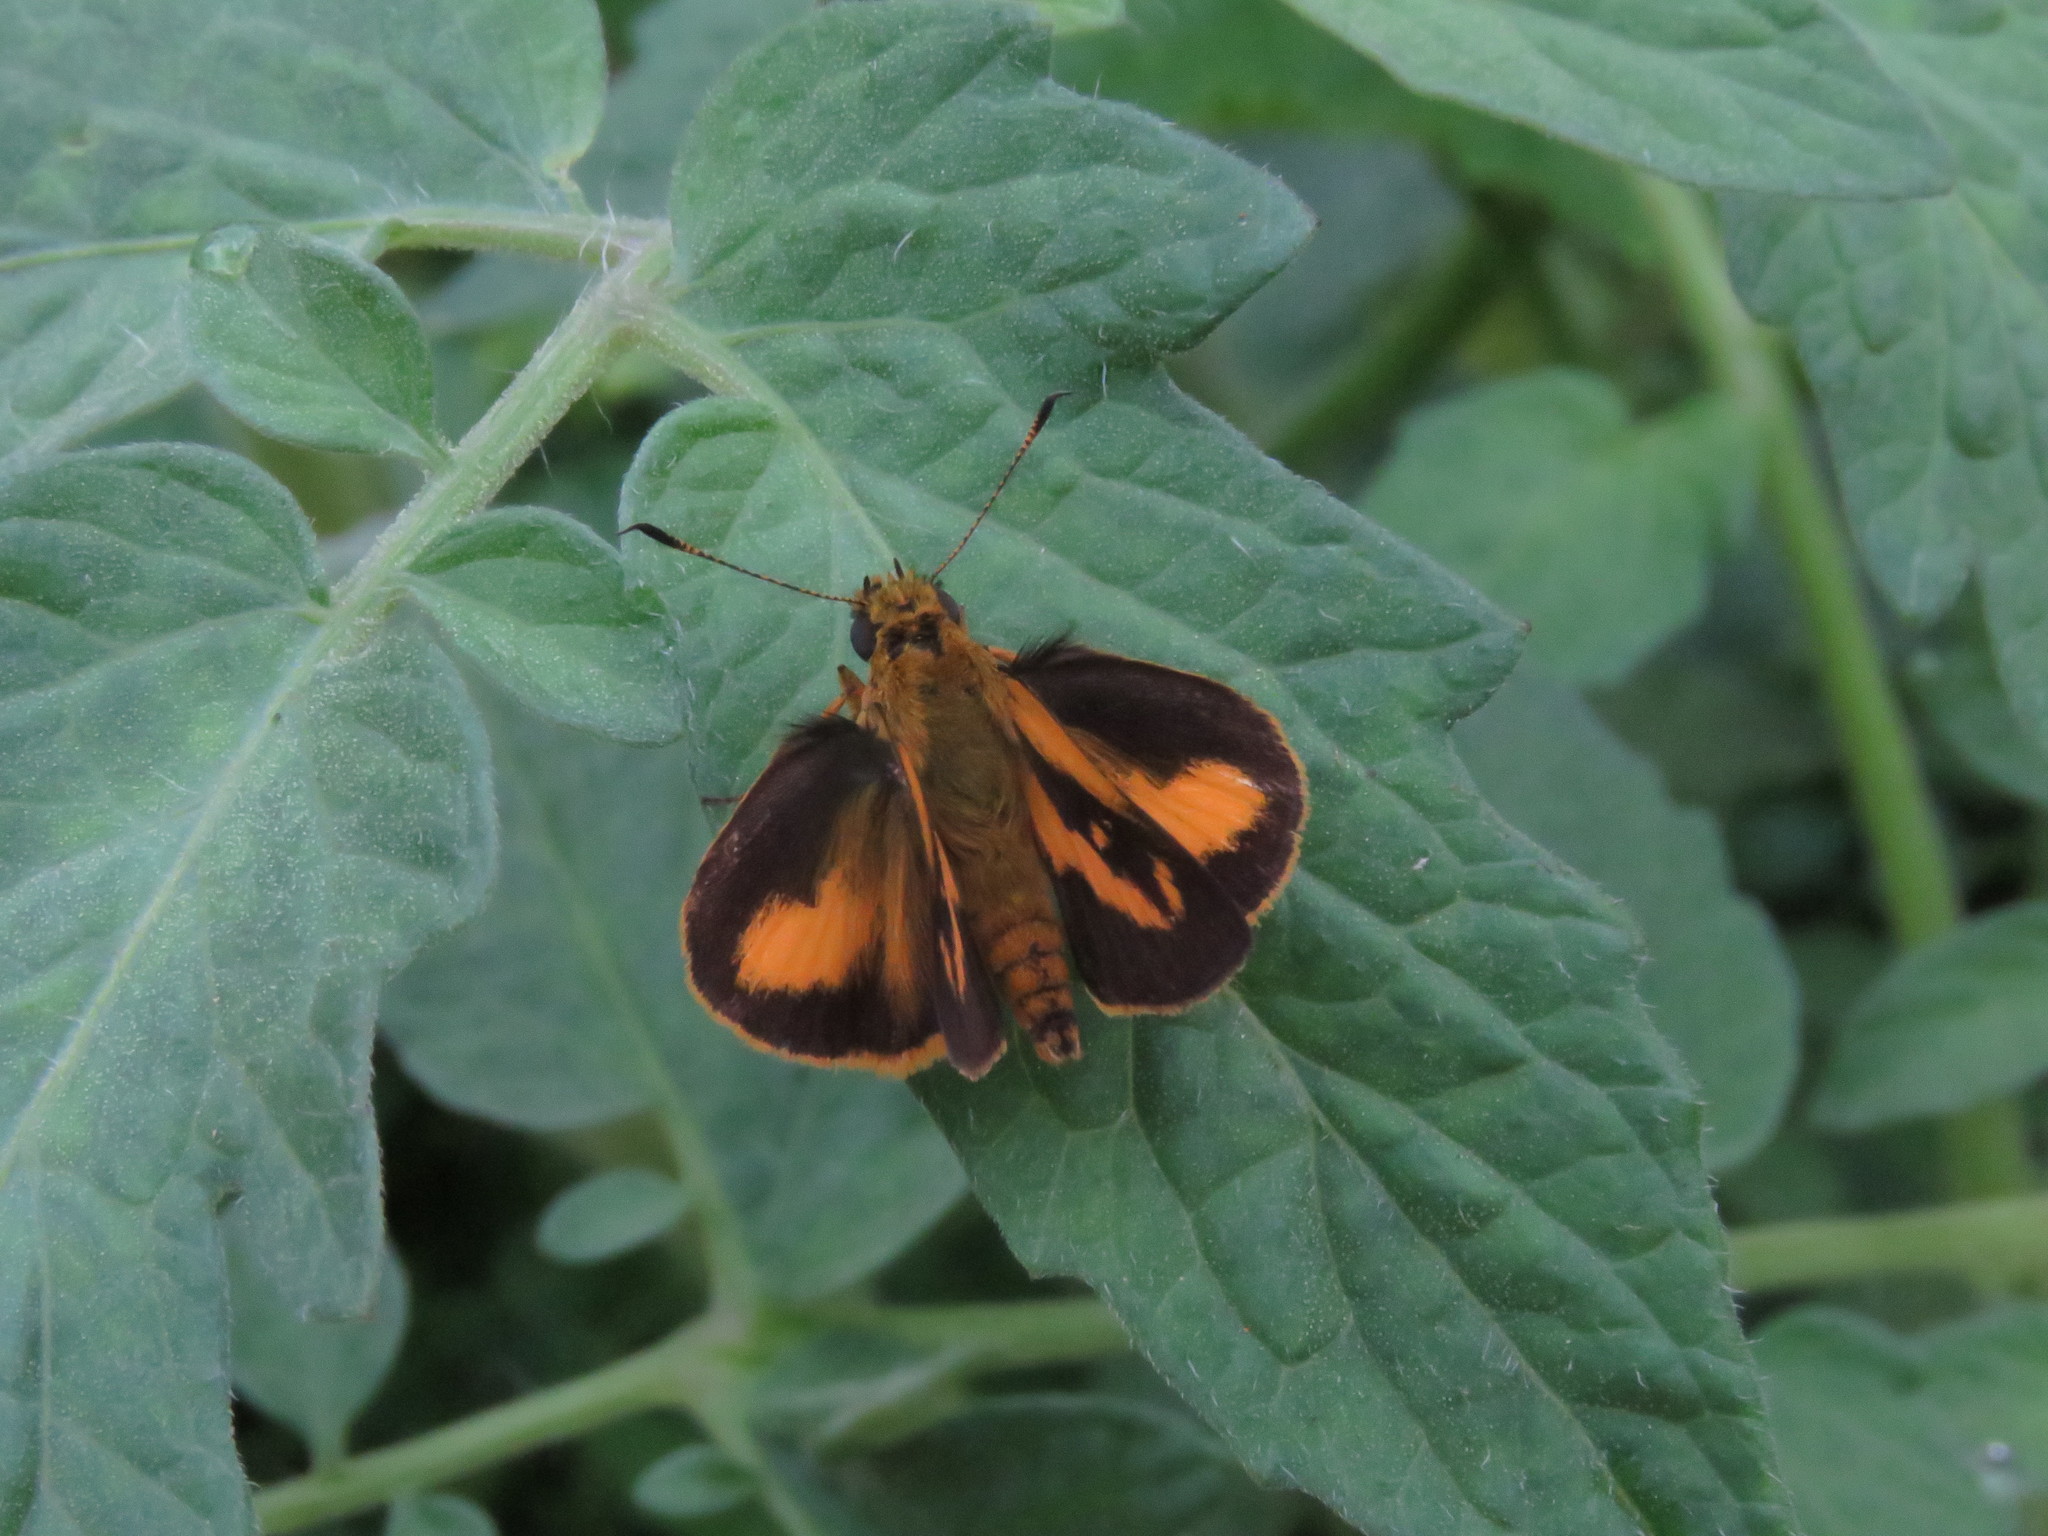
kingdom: Animalia
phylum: Arthropoda
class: Insecta
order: Lepidoptera
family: Hesperiidae
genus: Anthoptus
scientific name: Anthoptus epictetus
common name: Trailside skipper
